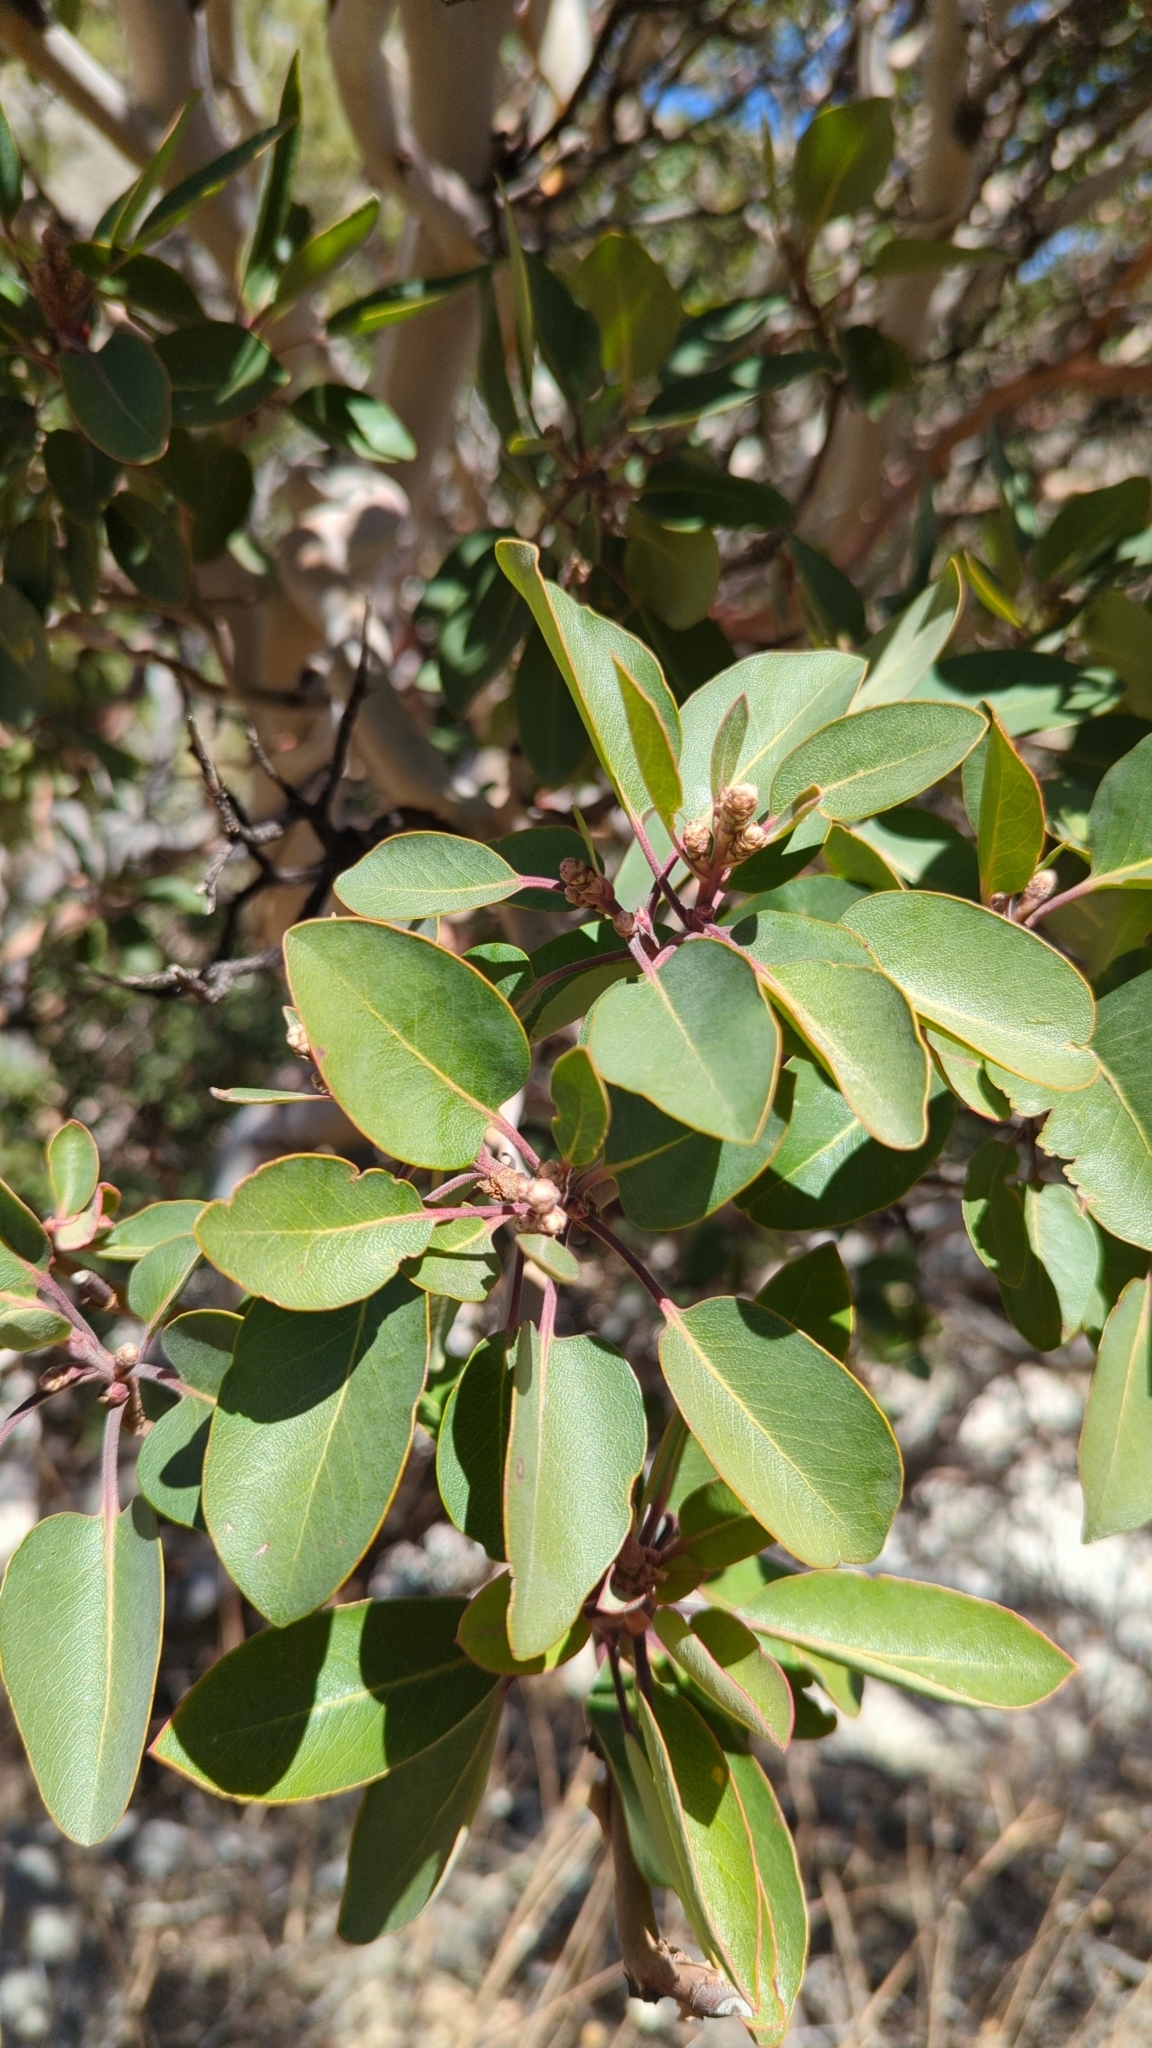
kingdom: Plantae
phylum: Tracheophyta
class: Magnoliopsida
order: Ericales
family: Ericaceae
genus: Arbutus
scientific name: Arbutus xalapensis
